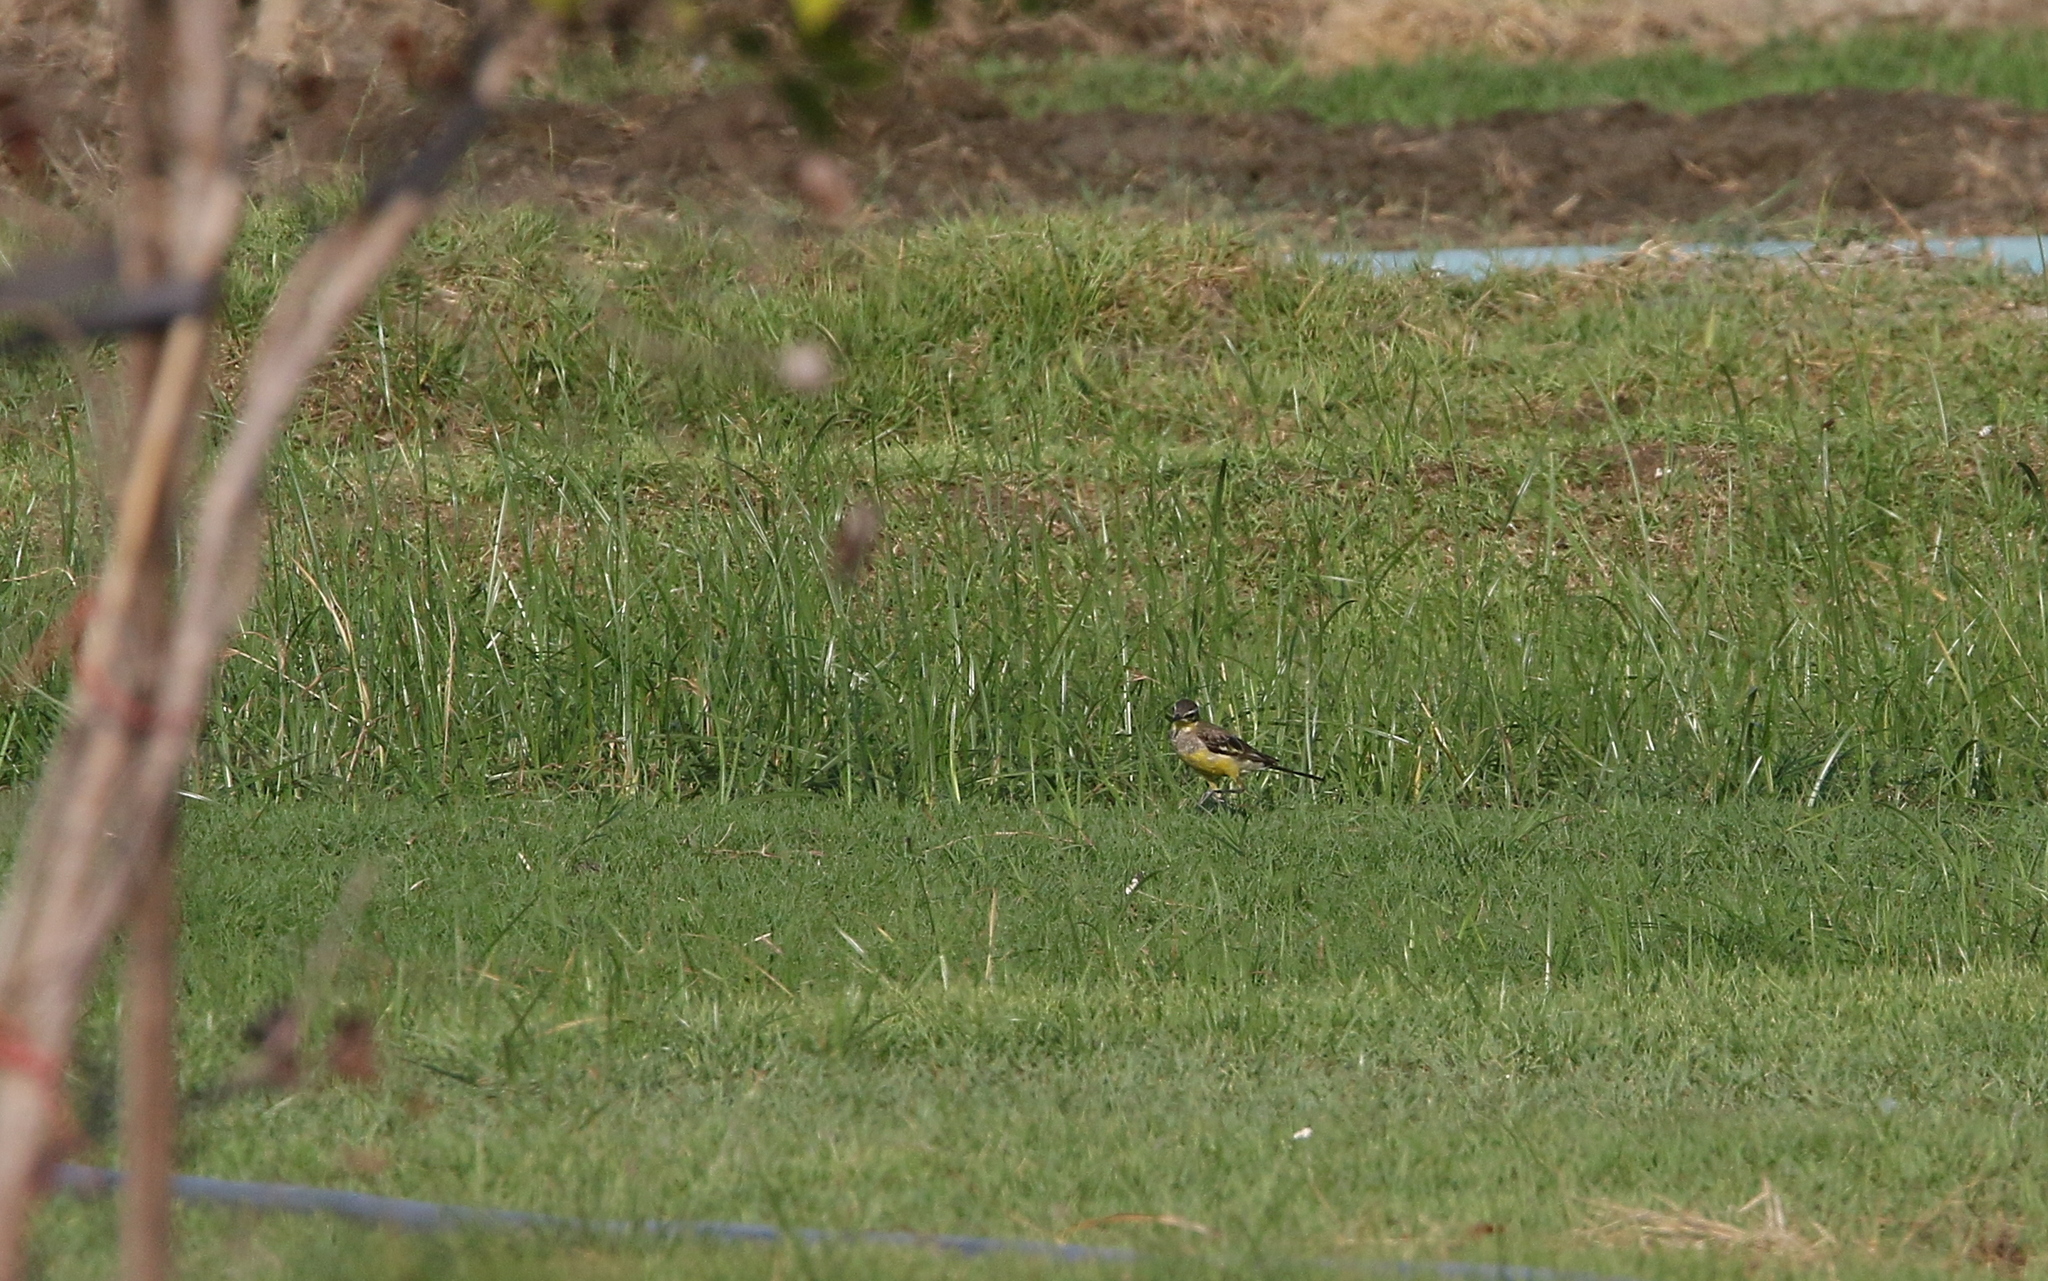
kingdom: Animalia
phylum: Chordata
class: Aves
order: Passeriformes
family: Motacillidae
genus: Motacilla
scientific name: Motacilla tschutschensis
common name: Eastern yellow wagtail
